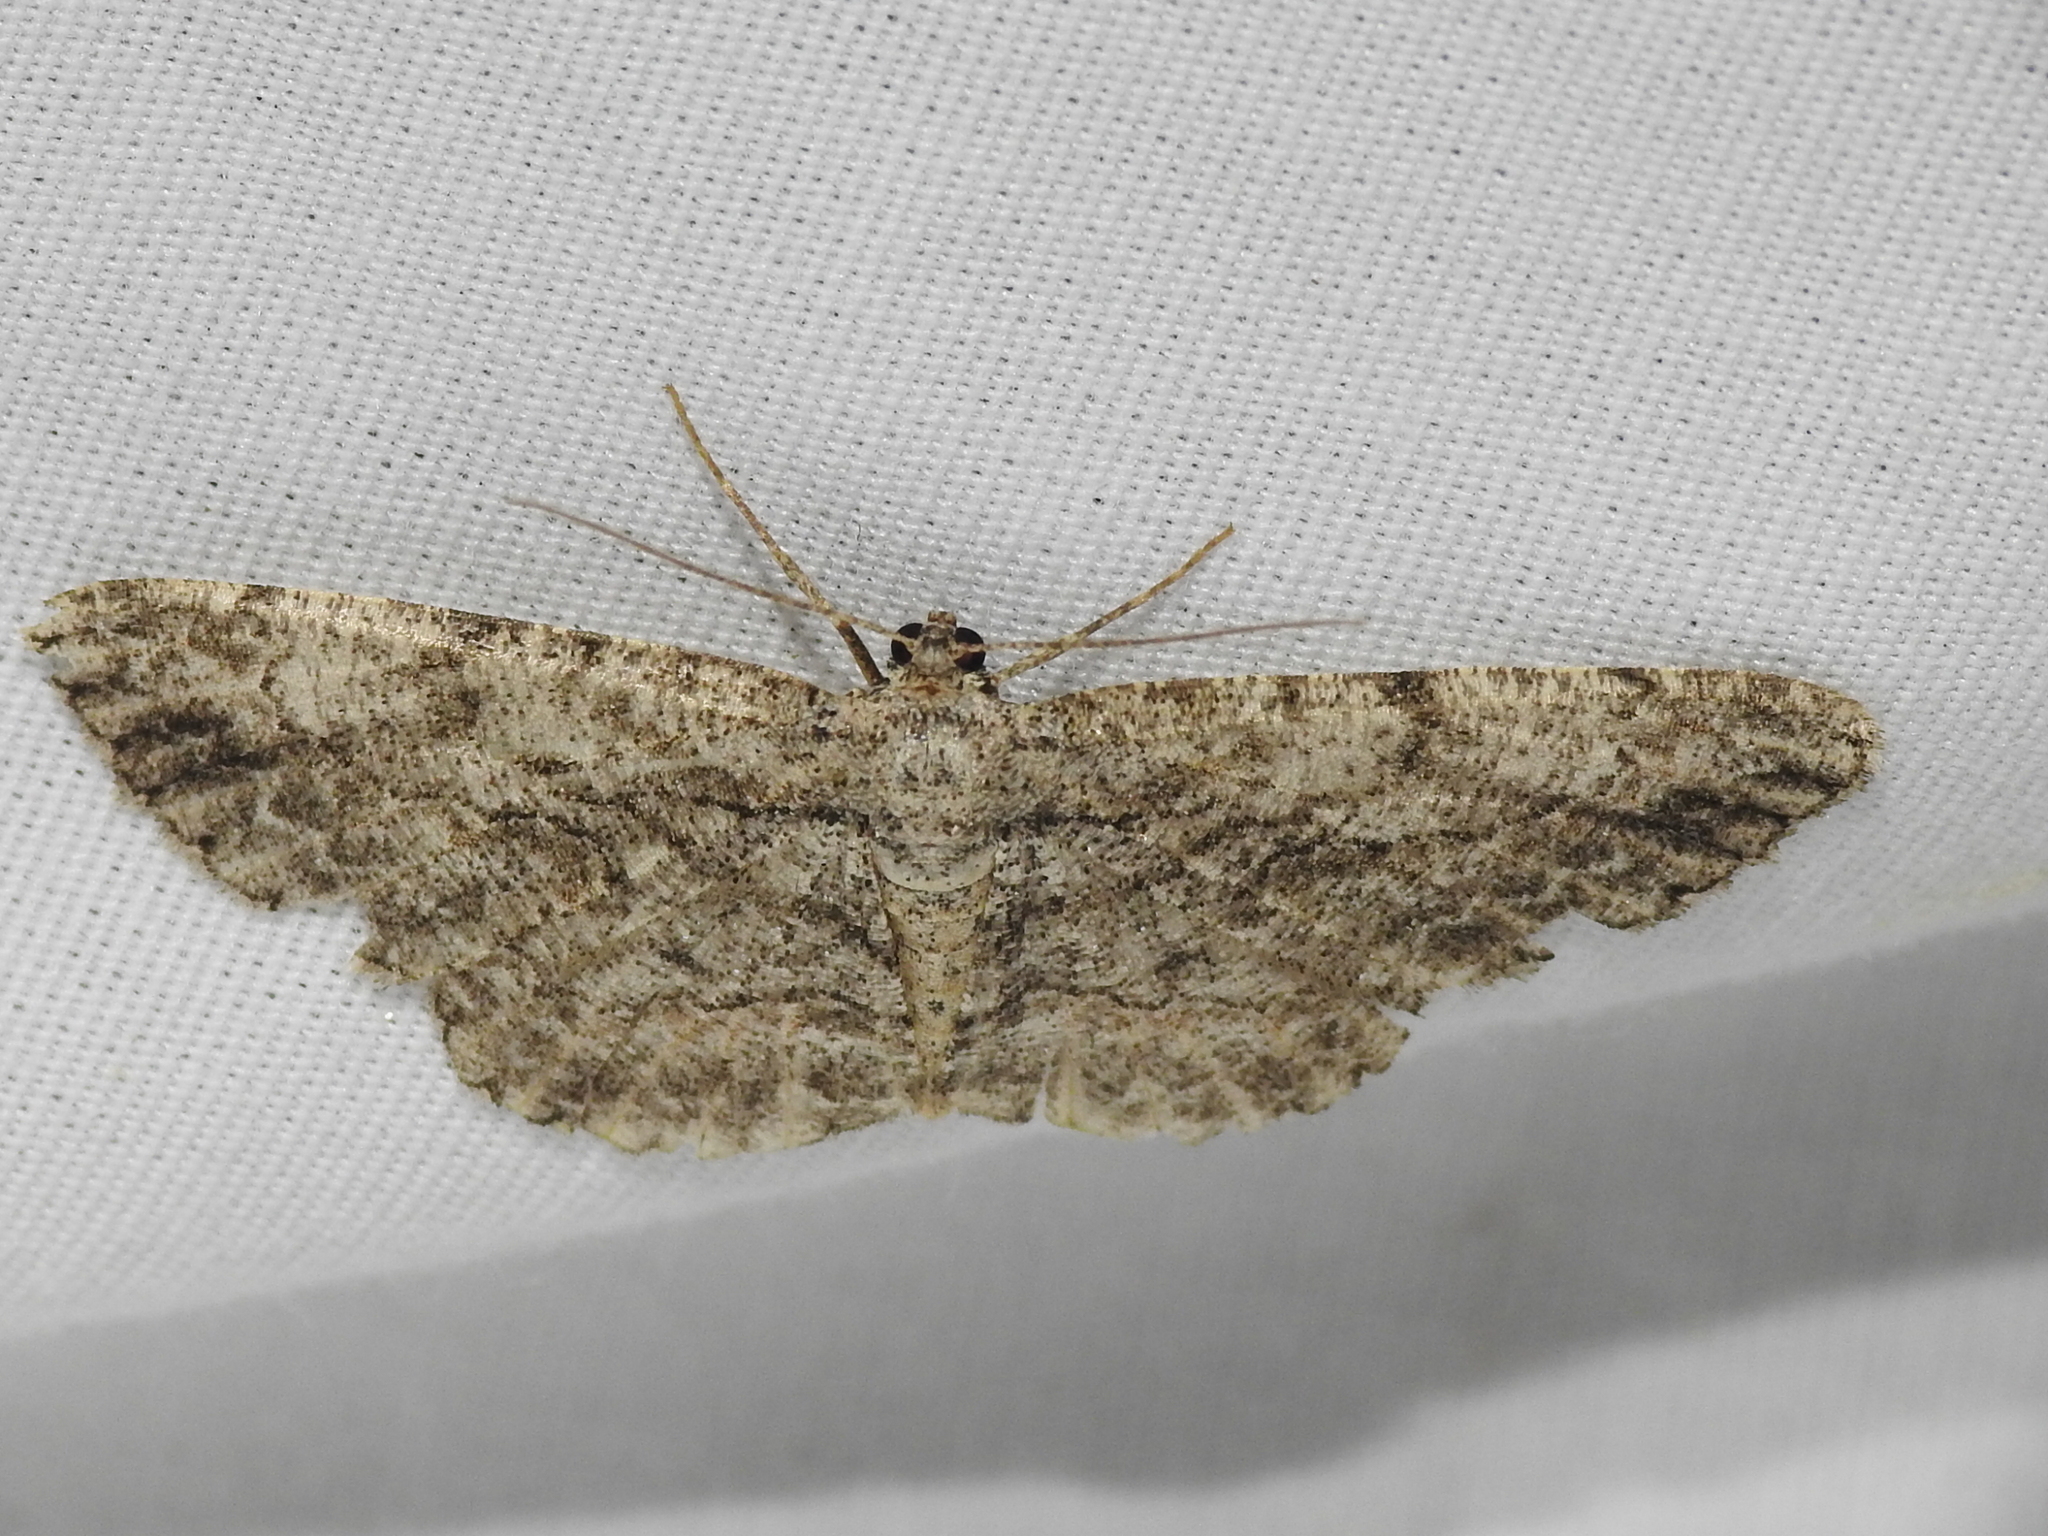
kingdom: Animalia
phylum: Arthropoda
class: Insecta
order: Lepidoptera
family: Geometridae
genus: Anavitrinella
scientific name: Anavitrinella pampinaria
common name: Common gray
